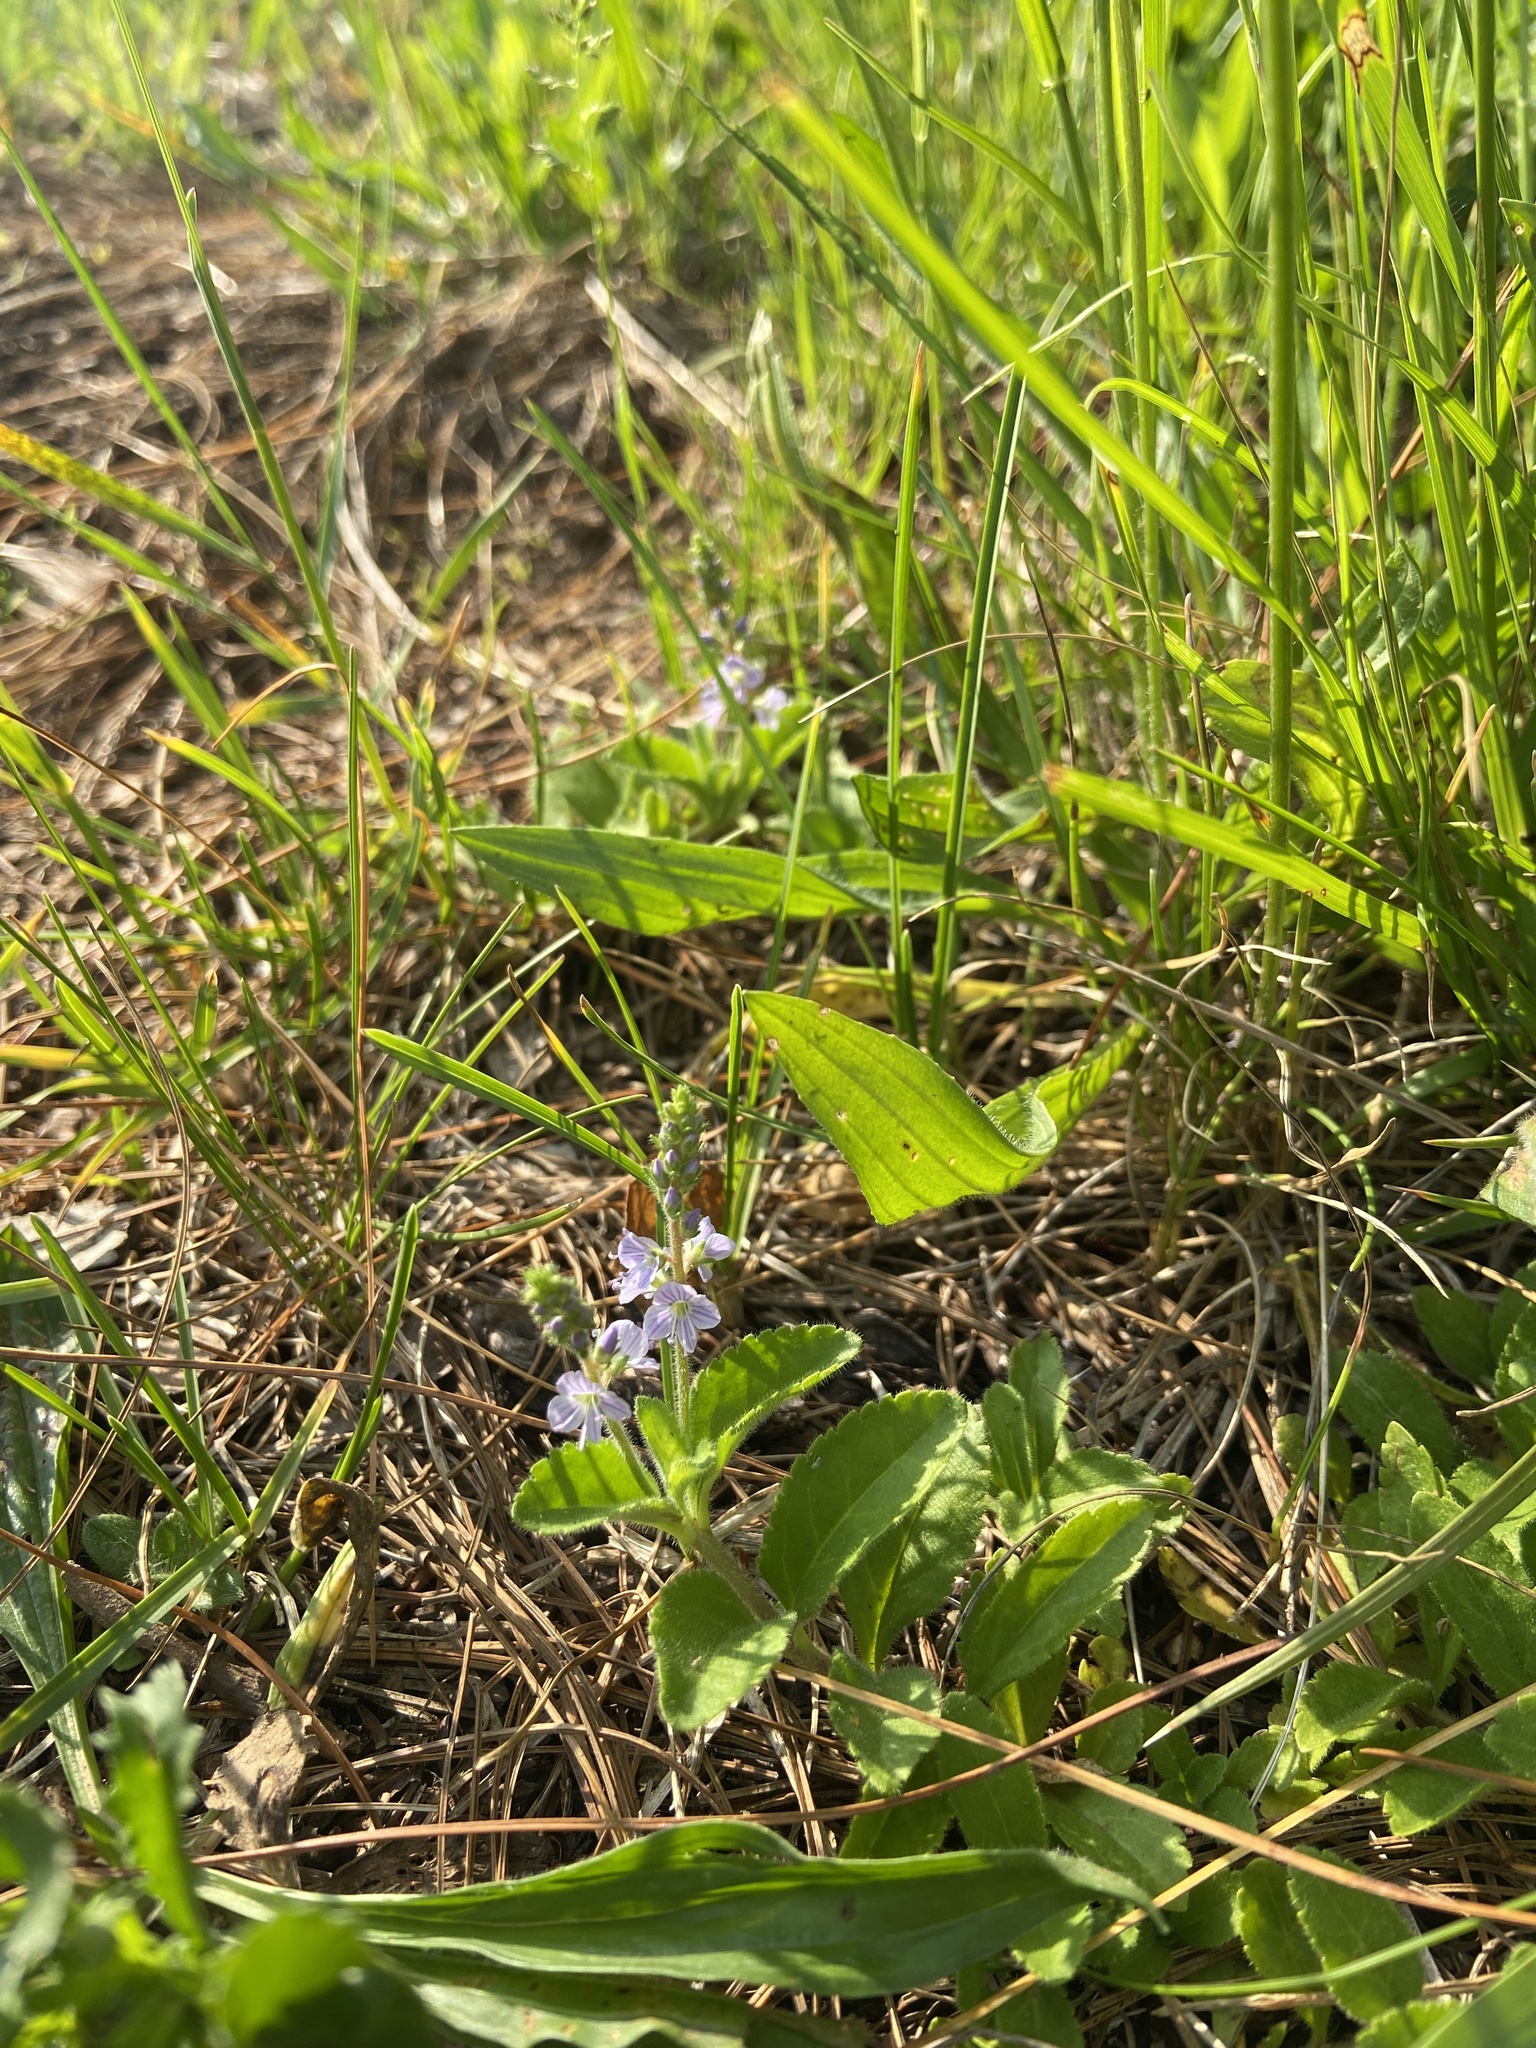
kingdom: Plantae
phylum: Tracheophyta
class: Magnoliopsida
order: Lamiales
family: Plantaginaceae
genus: Veronica
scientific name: Veronica officinalis
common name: Common speedwell
